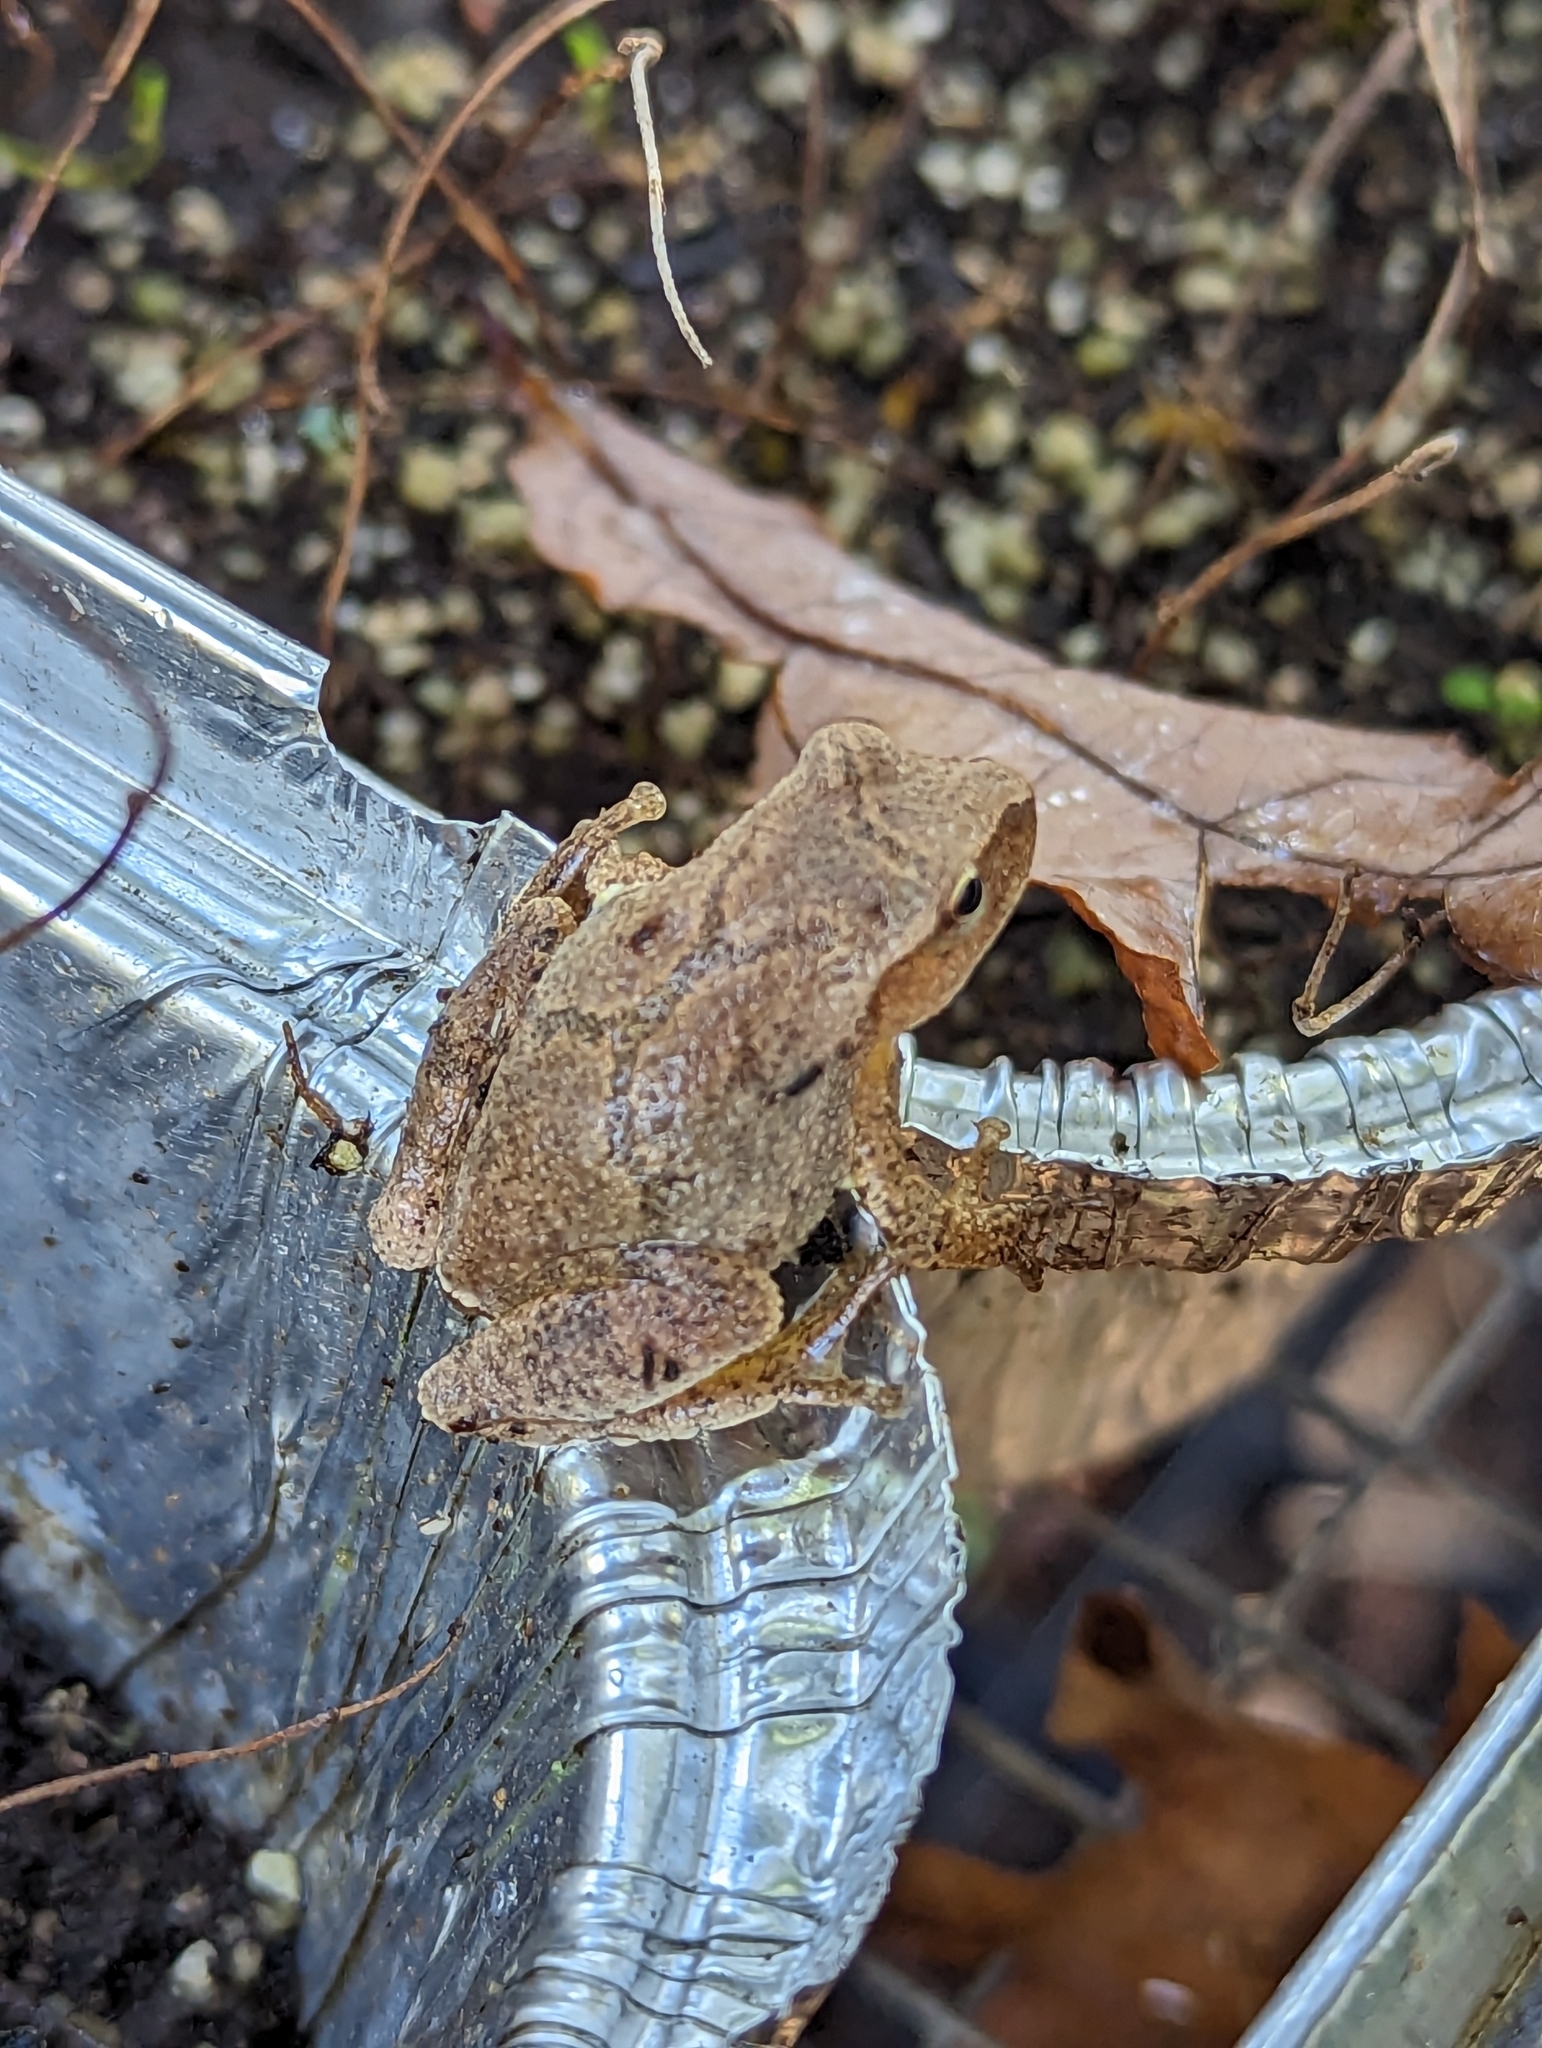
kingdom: Animalia
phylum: Chordata
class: Amphibia
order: Anura
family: Hylidae
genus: Pseudacris
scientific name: Pseudacris crucifer
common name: Spring peeper
